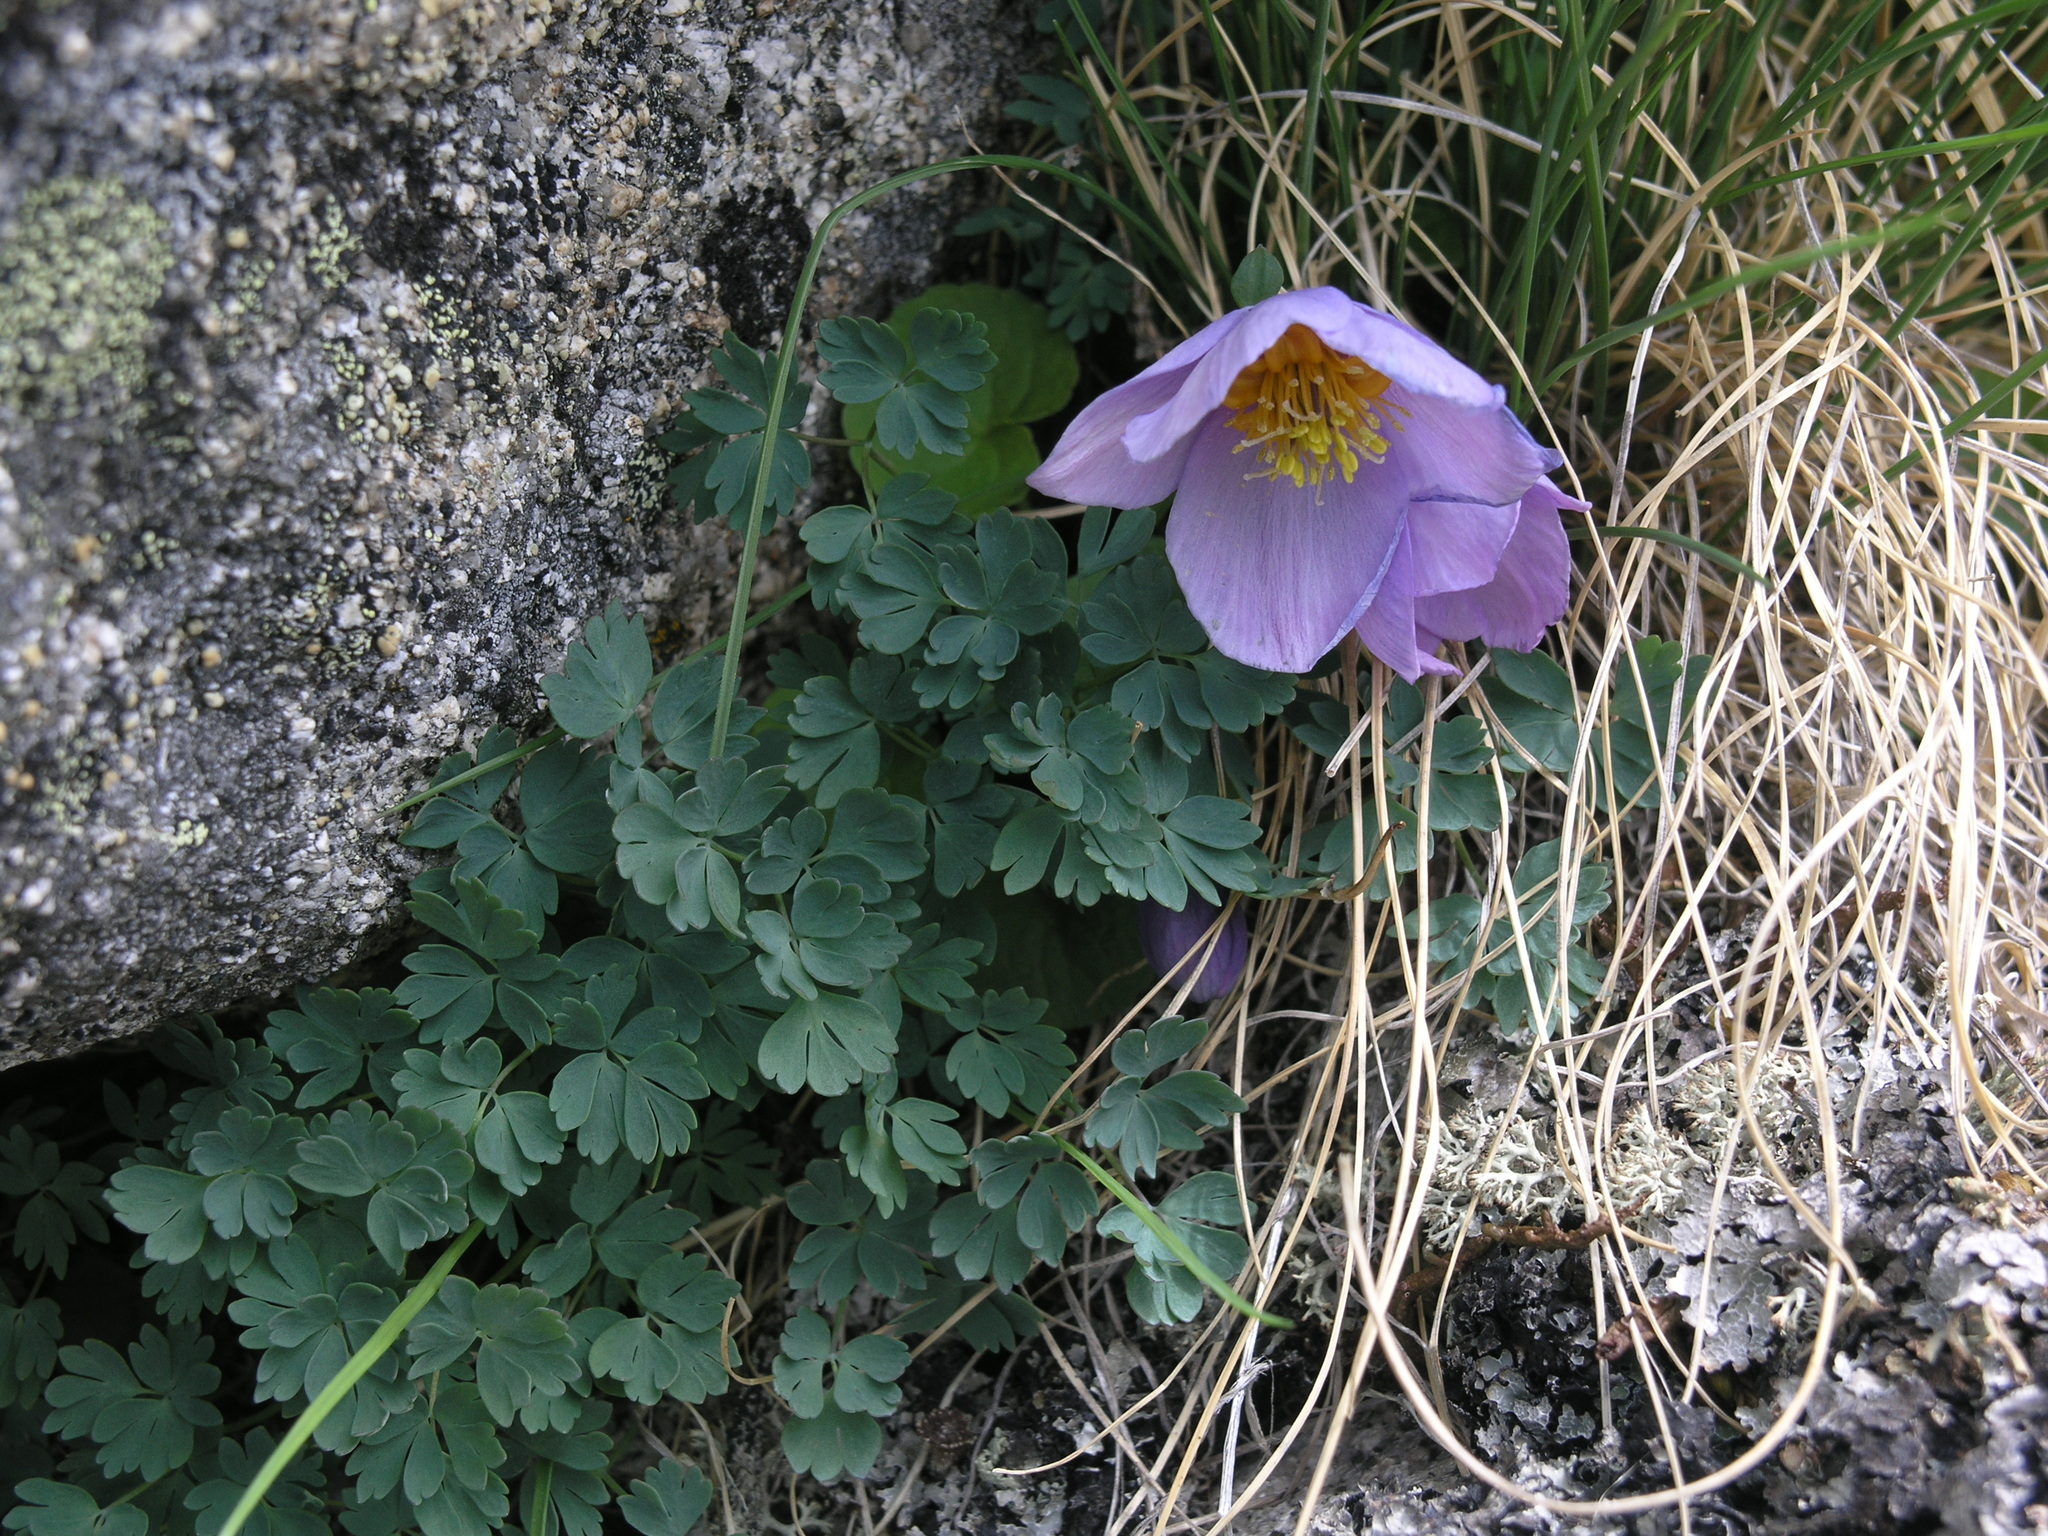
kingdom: Plantae
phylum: Tracheophyta
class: Magnoliopsida
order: Ranunculales
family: Ranunculaceae
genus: Paraquilegia
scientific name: Paraquilegia microphylla
